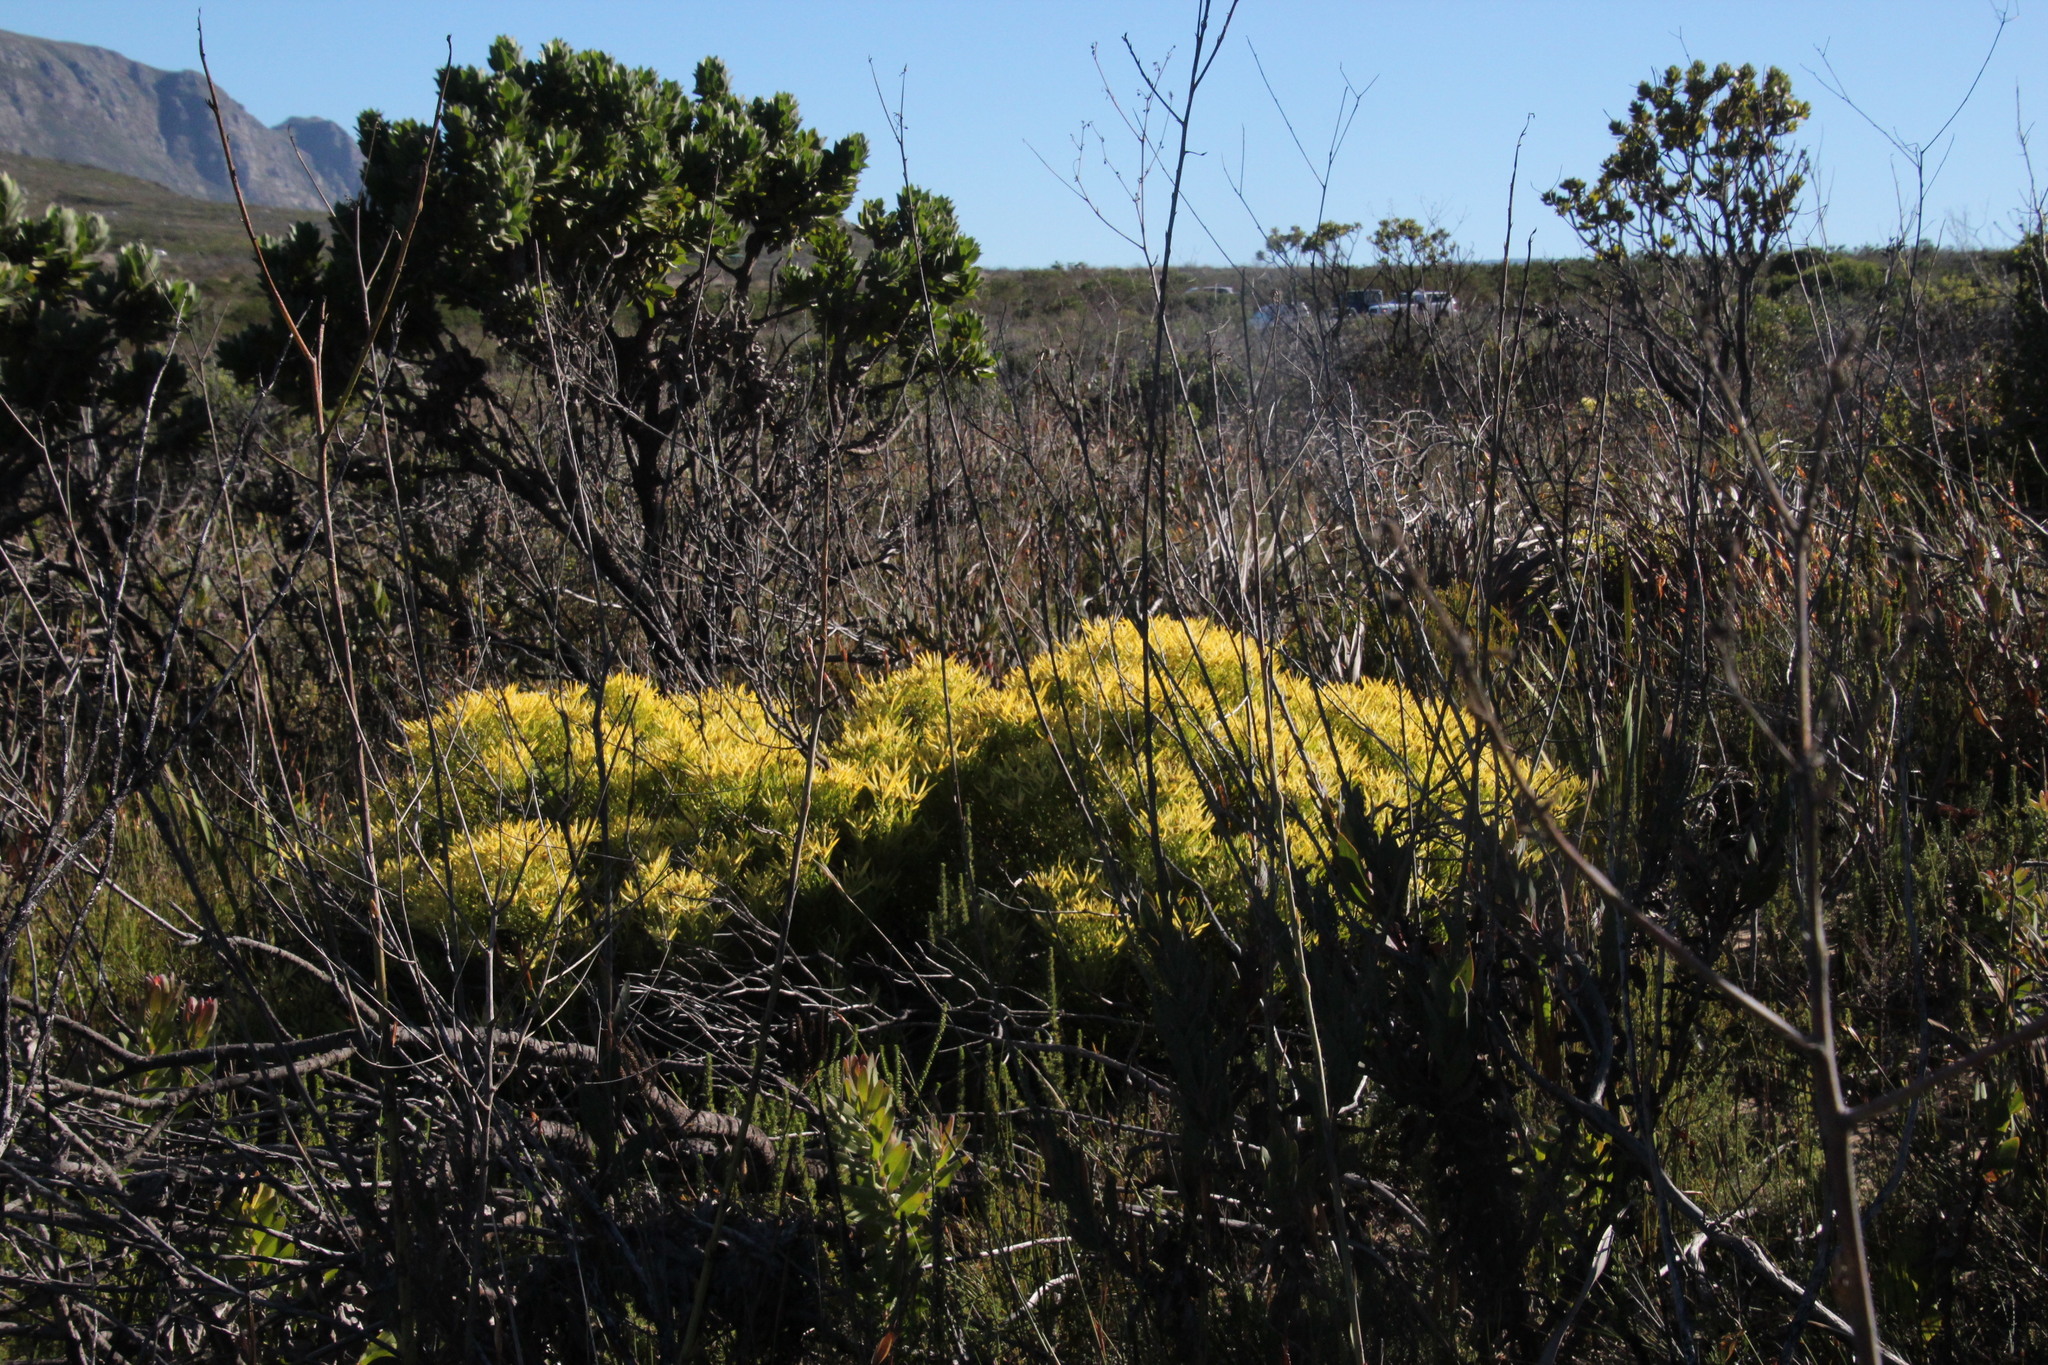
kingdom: Plantae
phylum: Tracheophyta
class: Magnoliopsida
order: Proteales
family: Proteaceae
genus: Leucadendron
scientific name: Leucadendron salignum
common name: Common sunshine conebush
